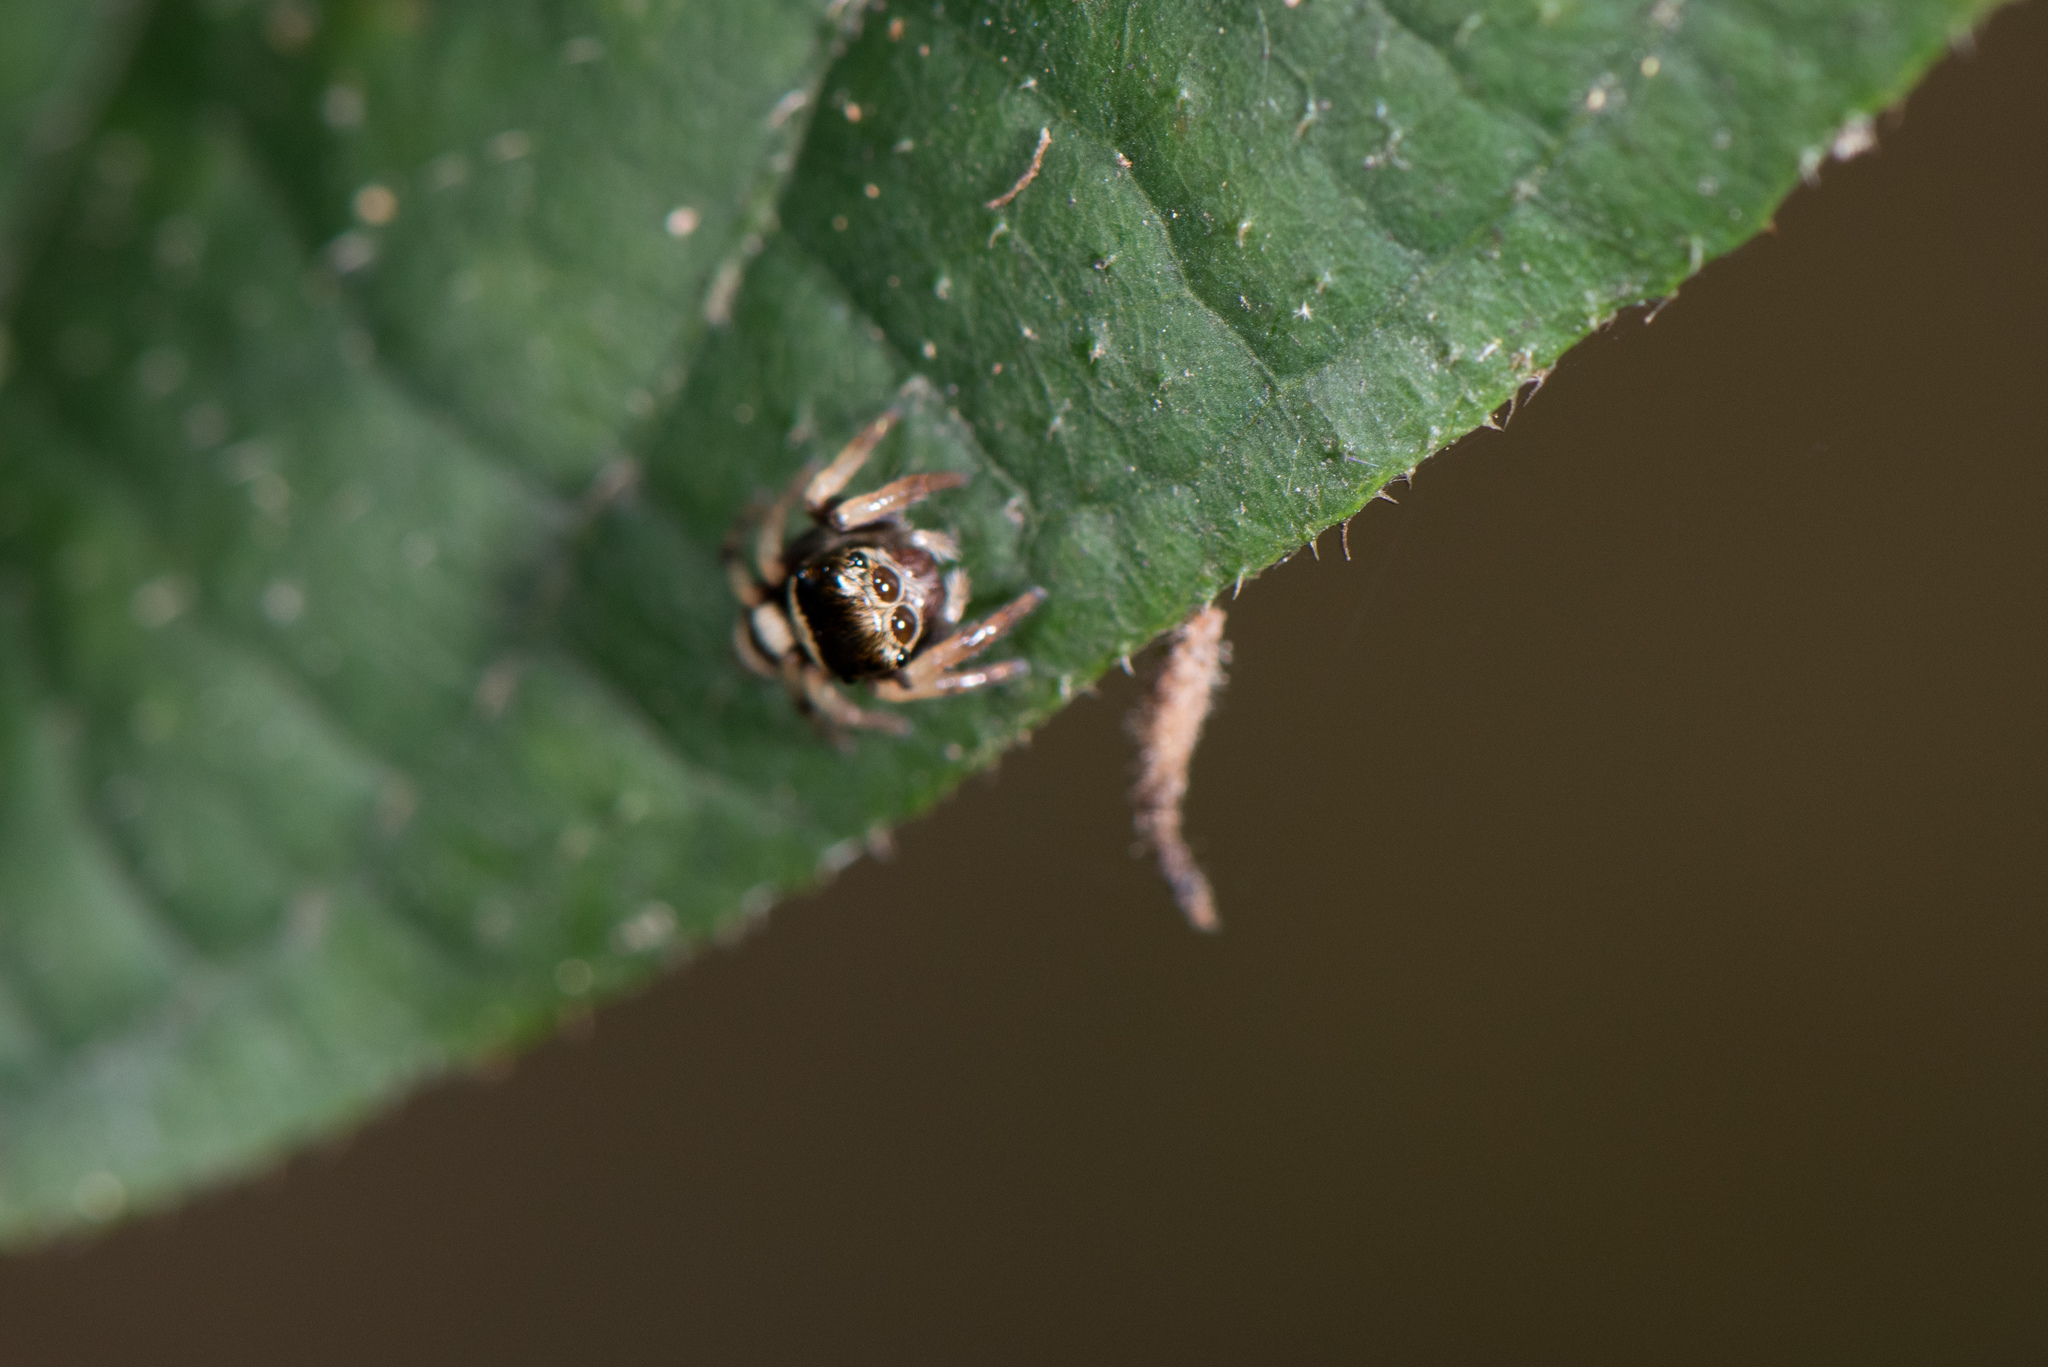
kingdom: Animalia
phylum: Arthropoda
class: Arachnida
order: Araneae
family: Salticidae
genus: Ptocasius
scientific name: Ptocasius strupifer
